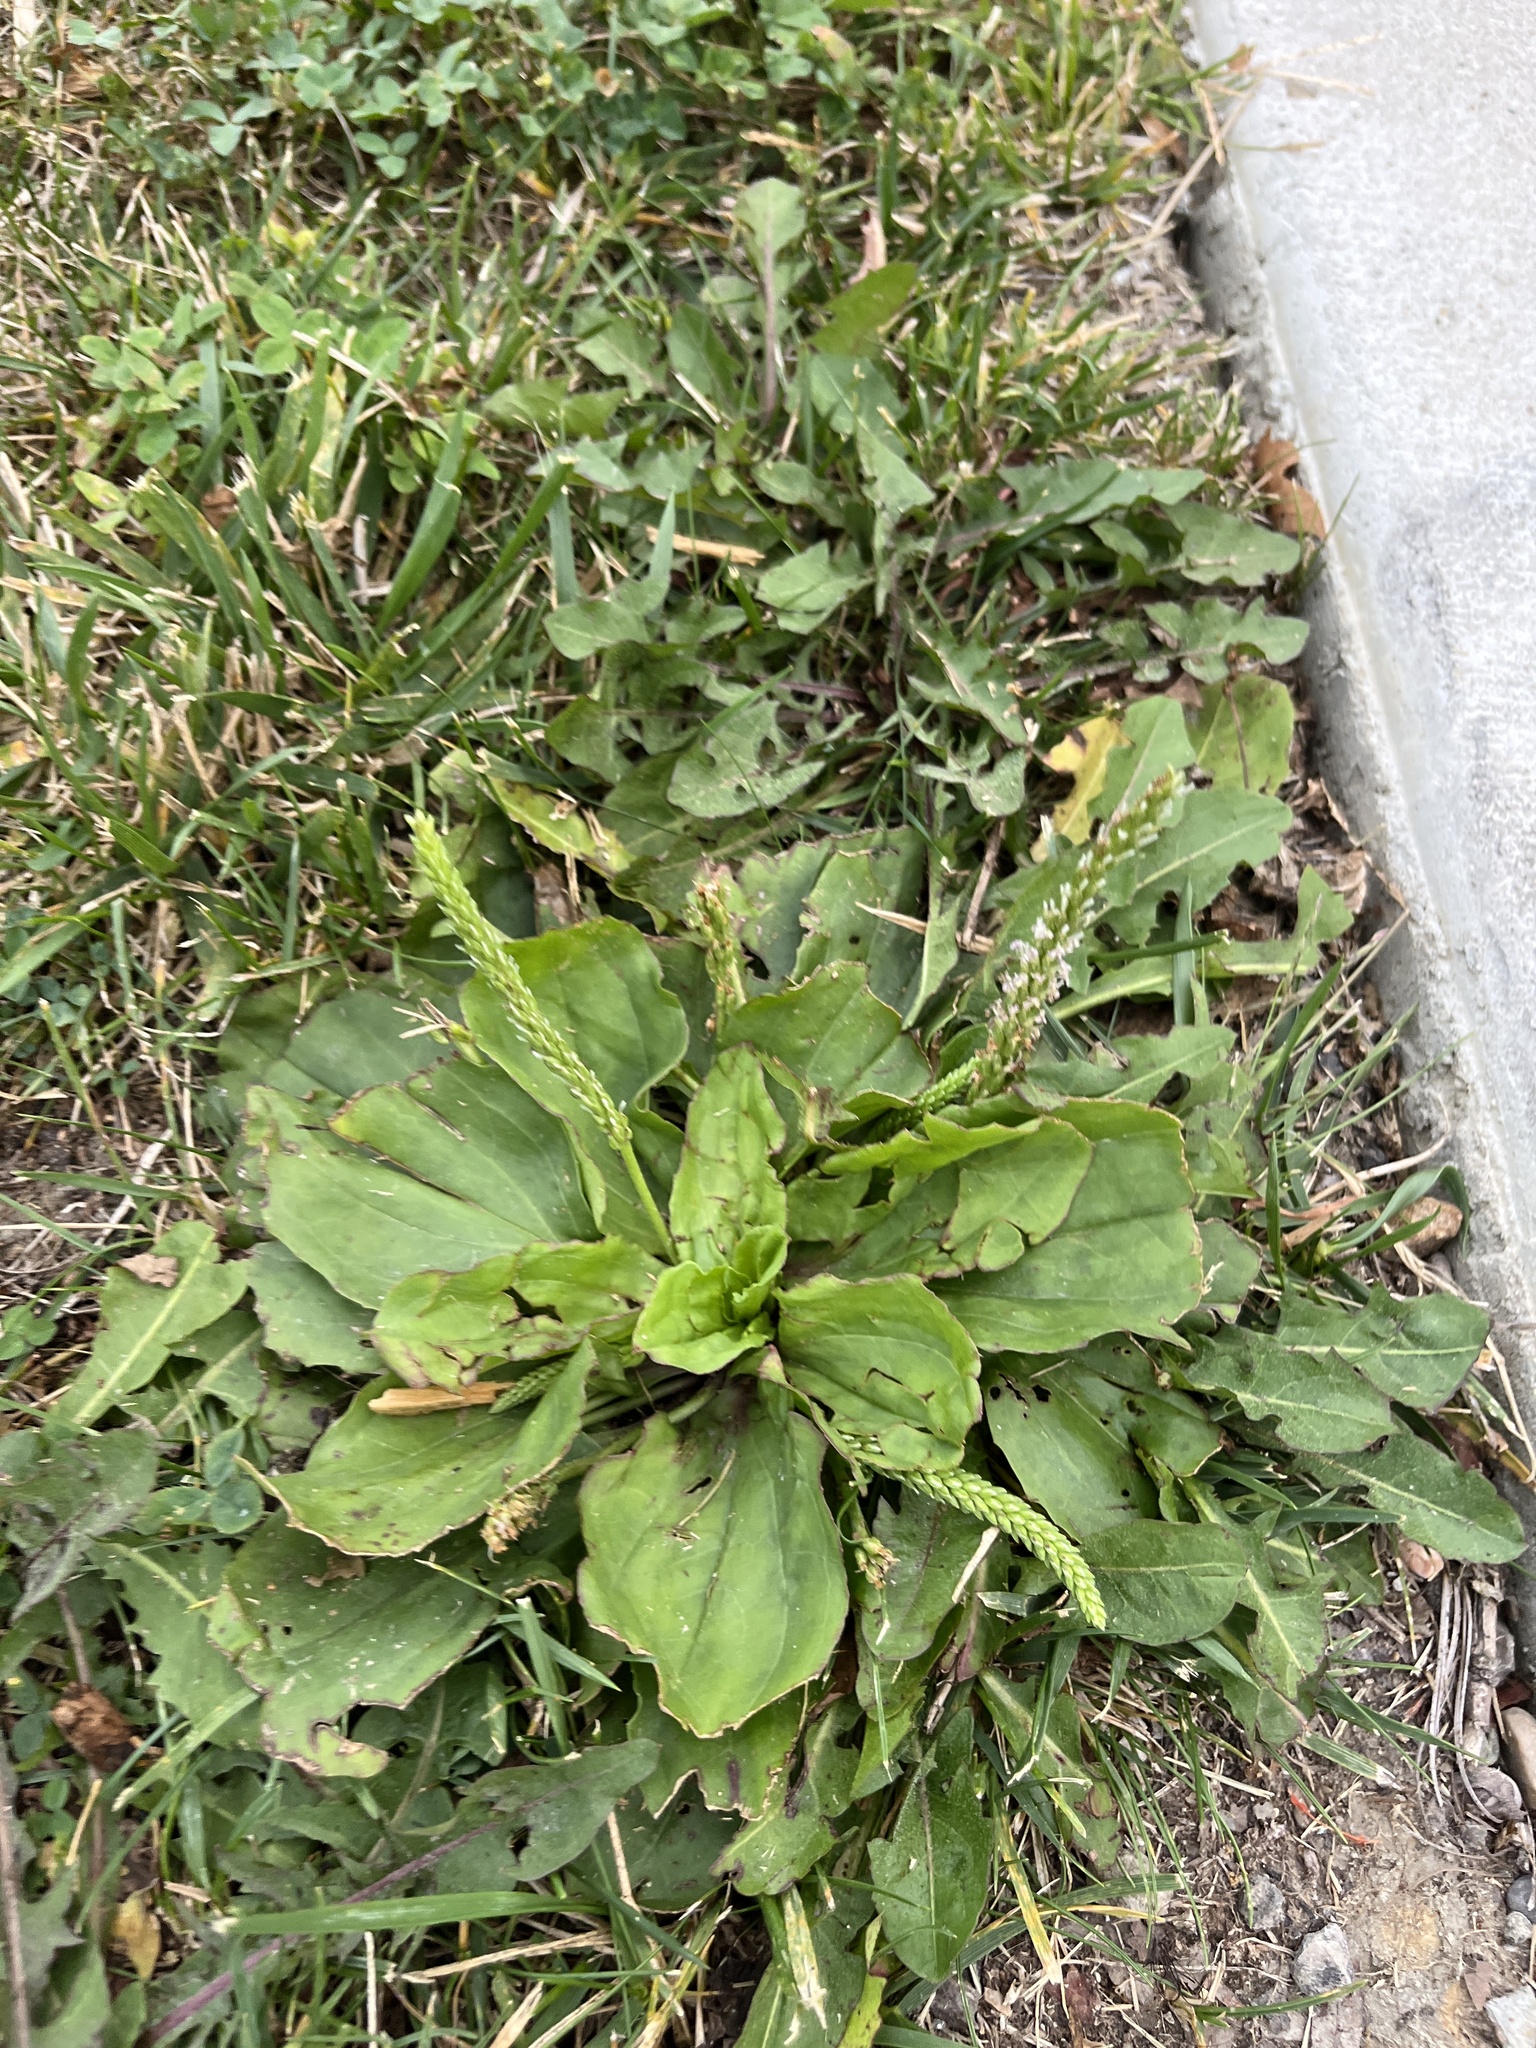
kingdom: Plantae
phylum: Tracheophyta
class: Magnoliopsida
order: Lamiales
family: Plantaginaceae
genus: Plantago
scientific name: Plantago major
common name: Common plantain
